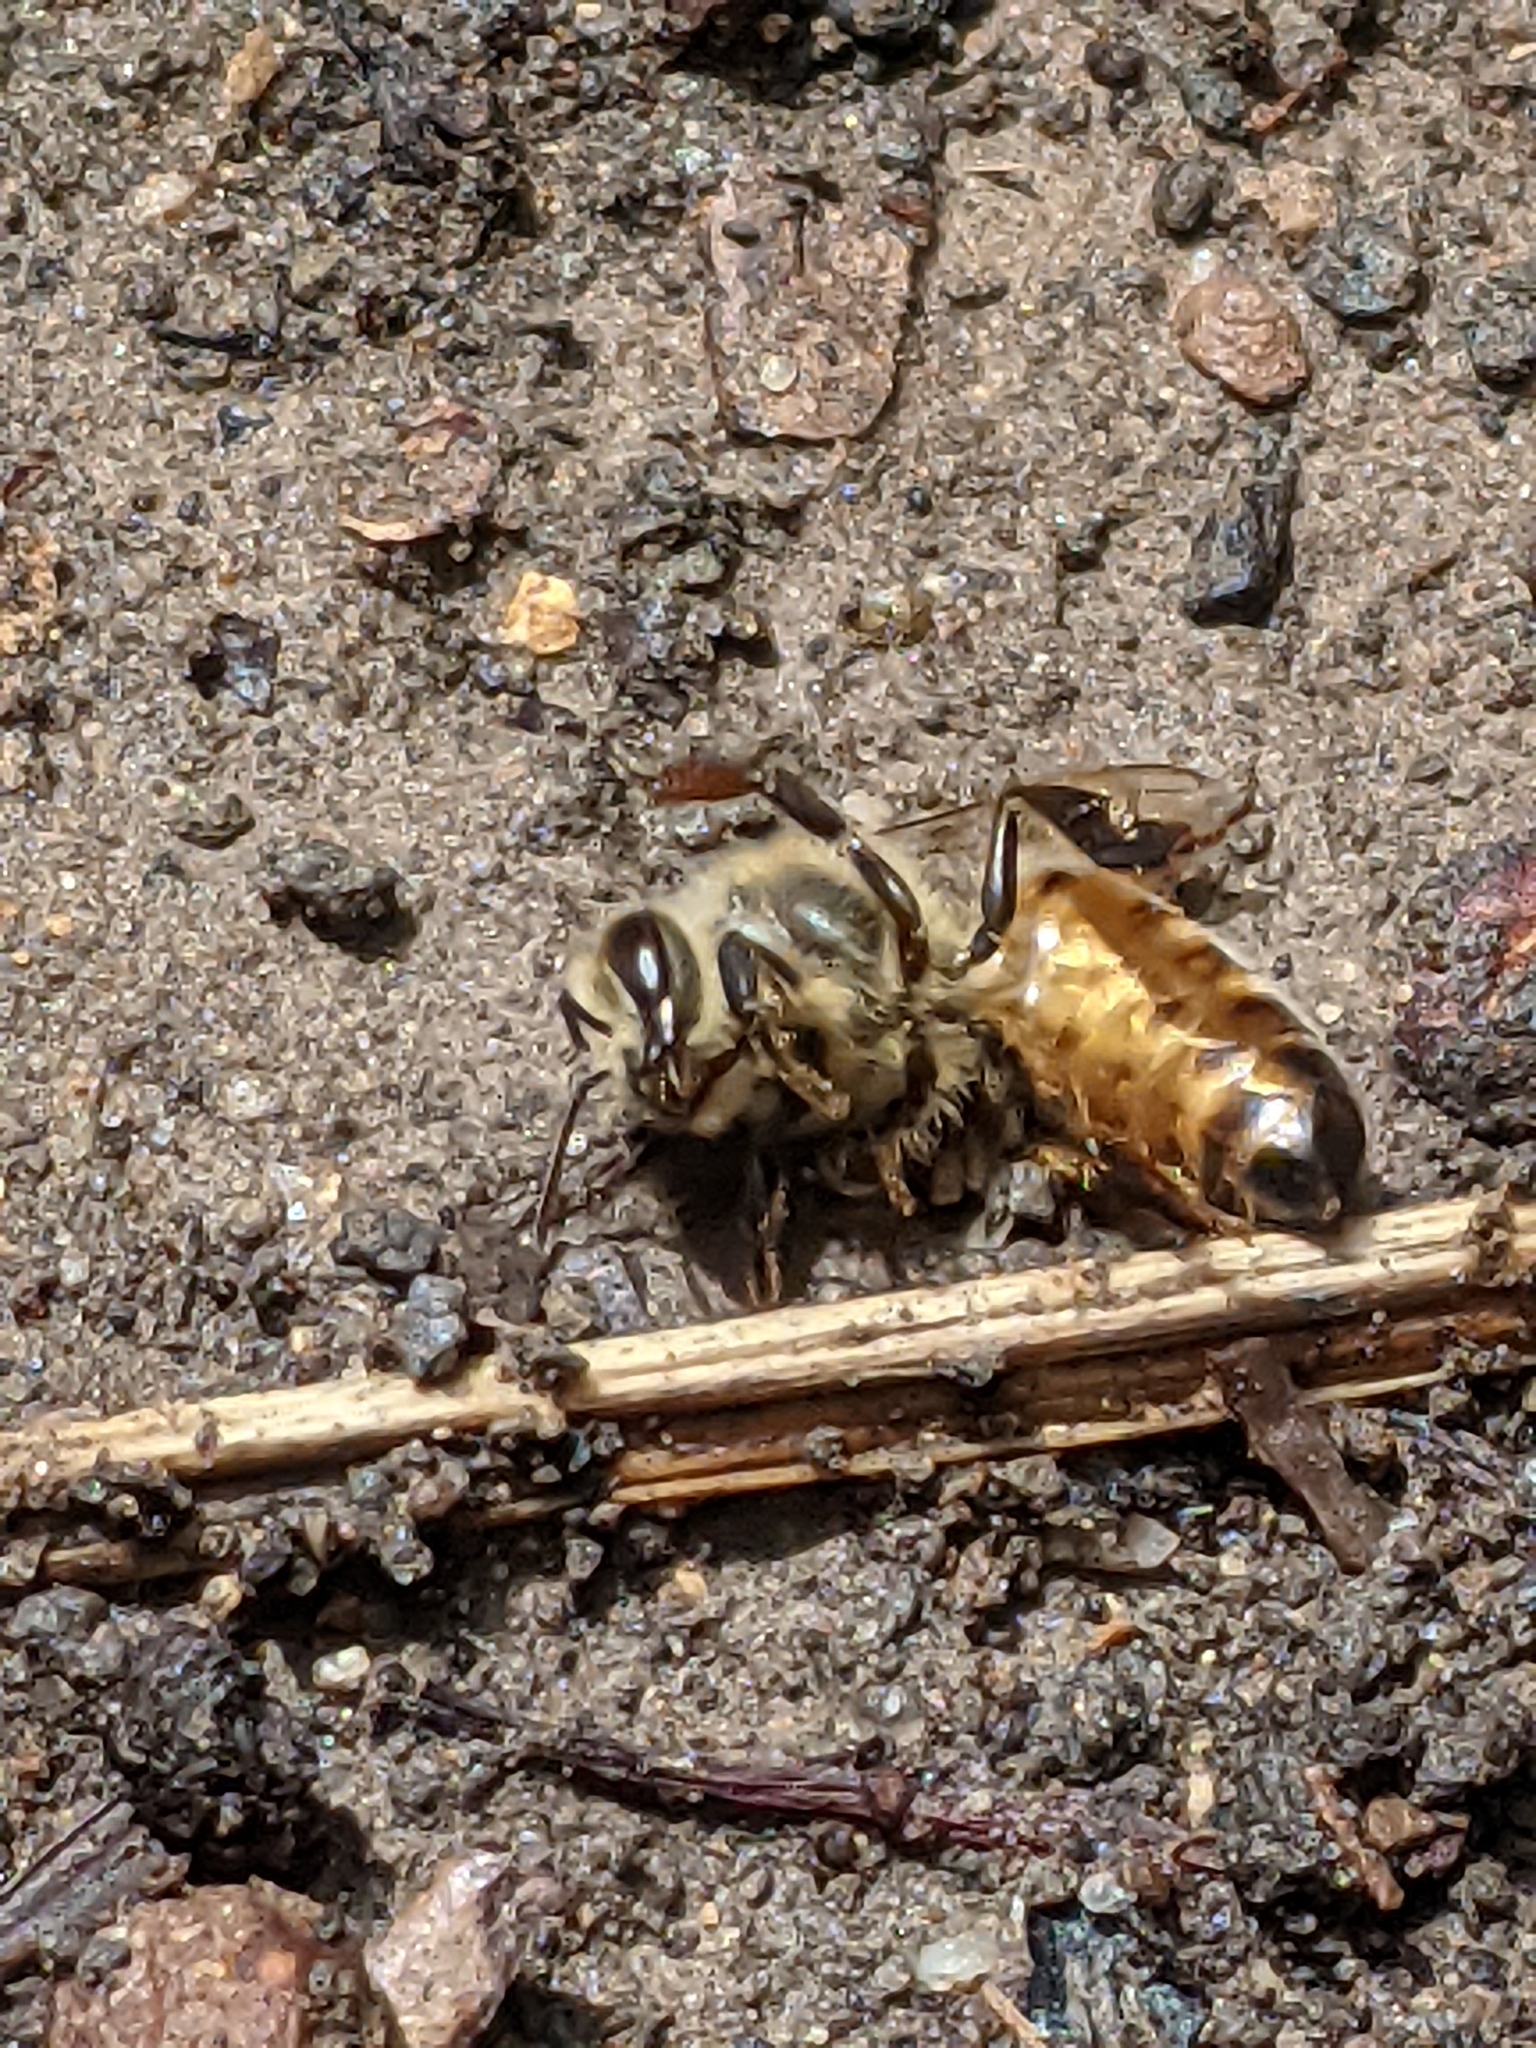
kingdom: Animalia
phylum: Arthropoda
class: Insecta
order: Hymenoptera
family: Apidae
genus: Apis
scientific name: Apis mellifera
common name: Honey bee
